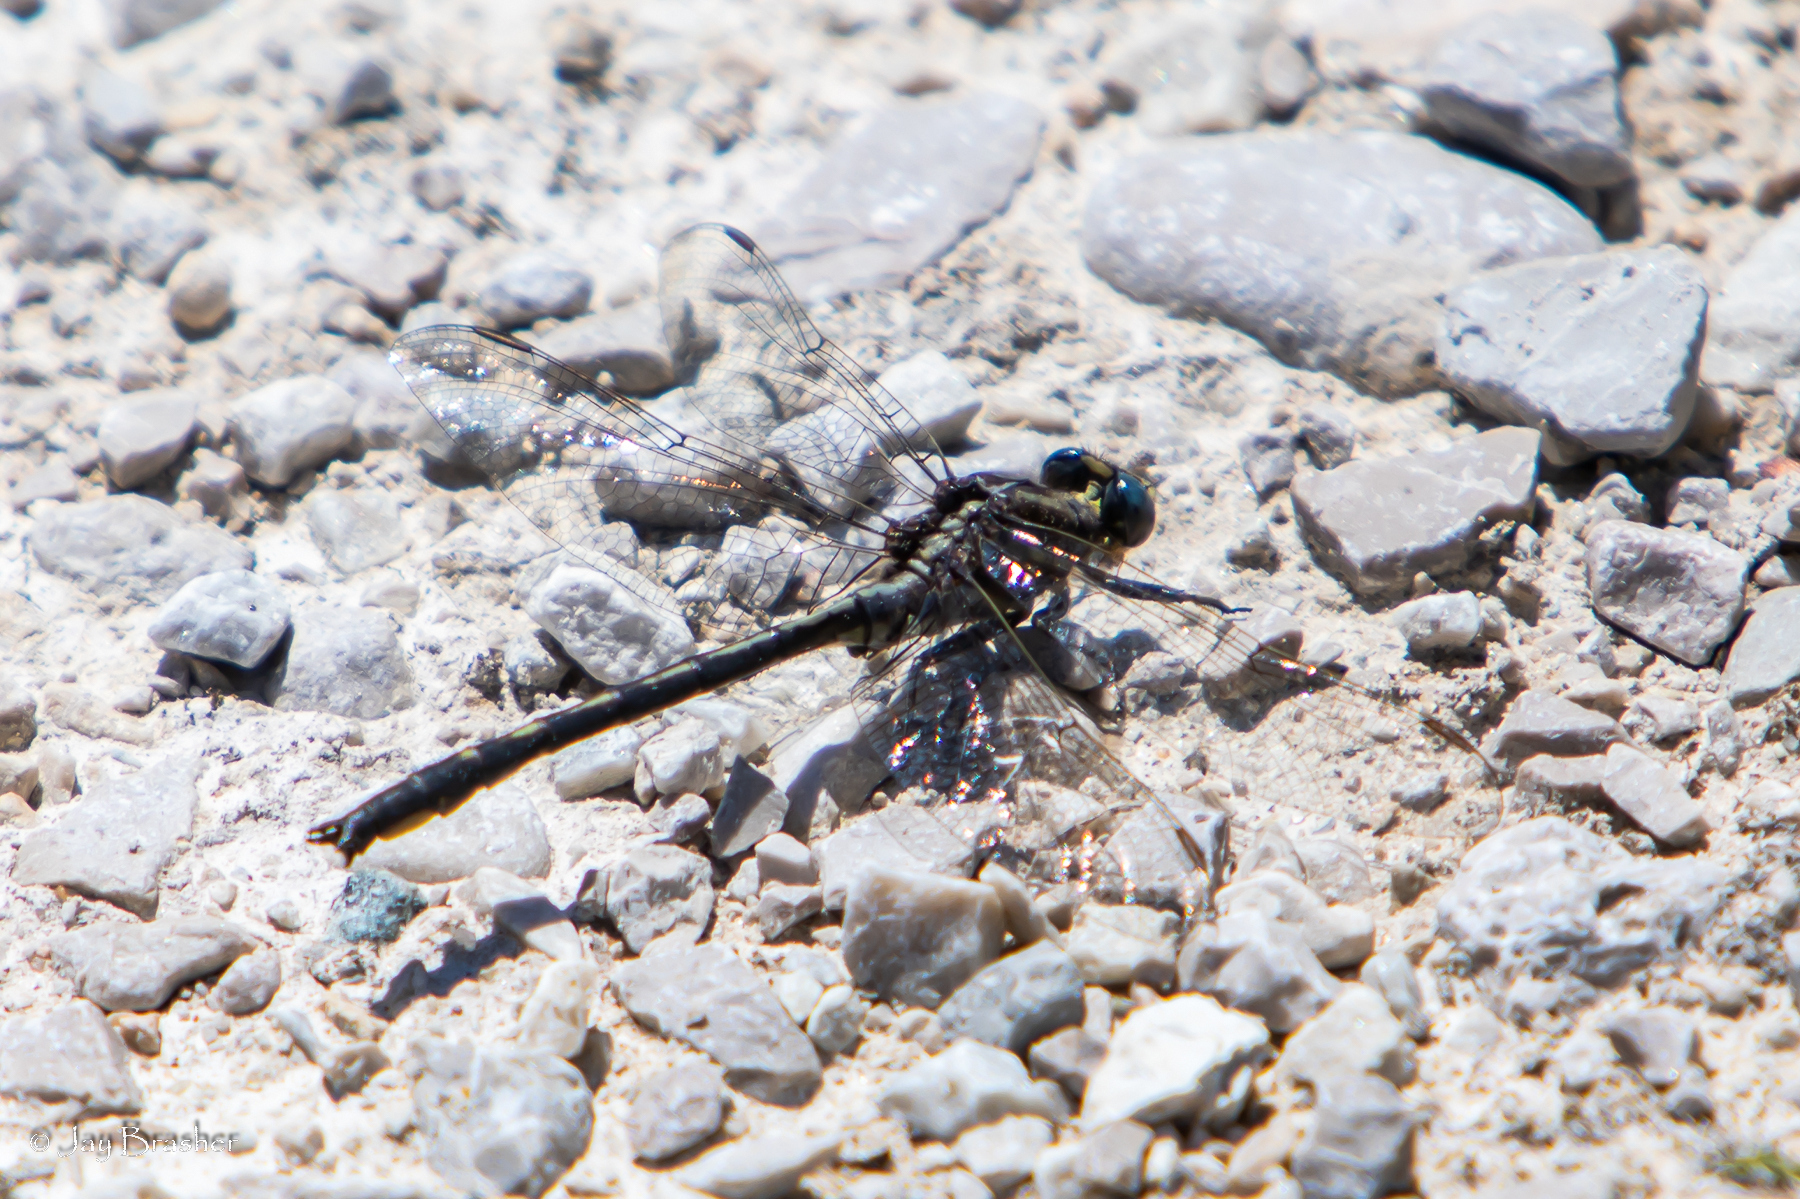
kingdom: Animalia
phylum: Arthropoda
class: Insecta
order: Odonata
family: Gomphidae
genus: Phanogomphus
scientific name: Phanogomphus spicatus
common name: Dusky clubtail
